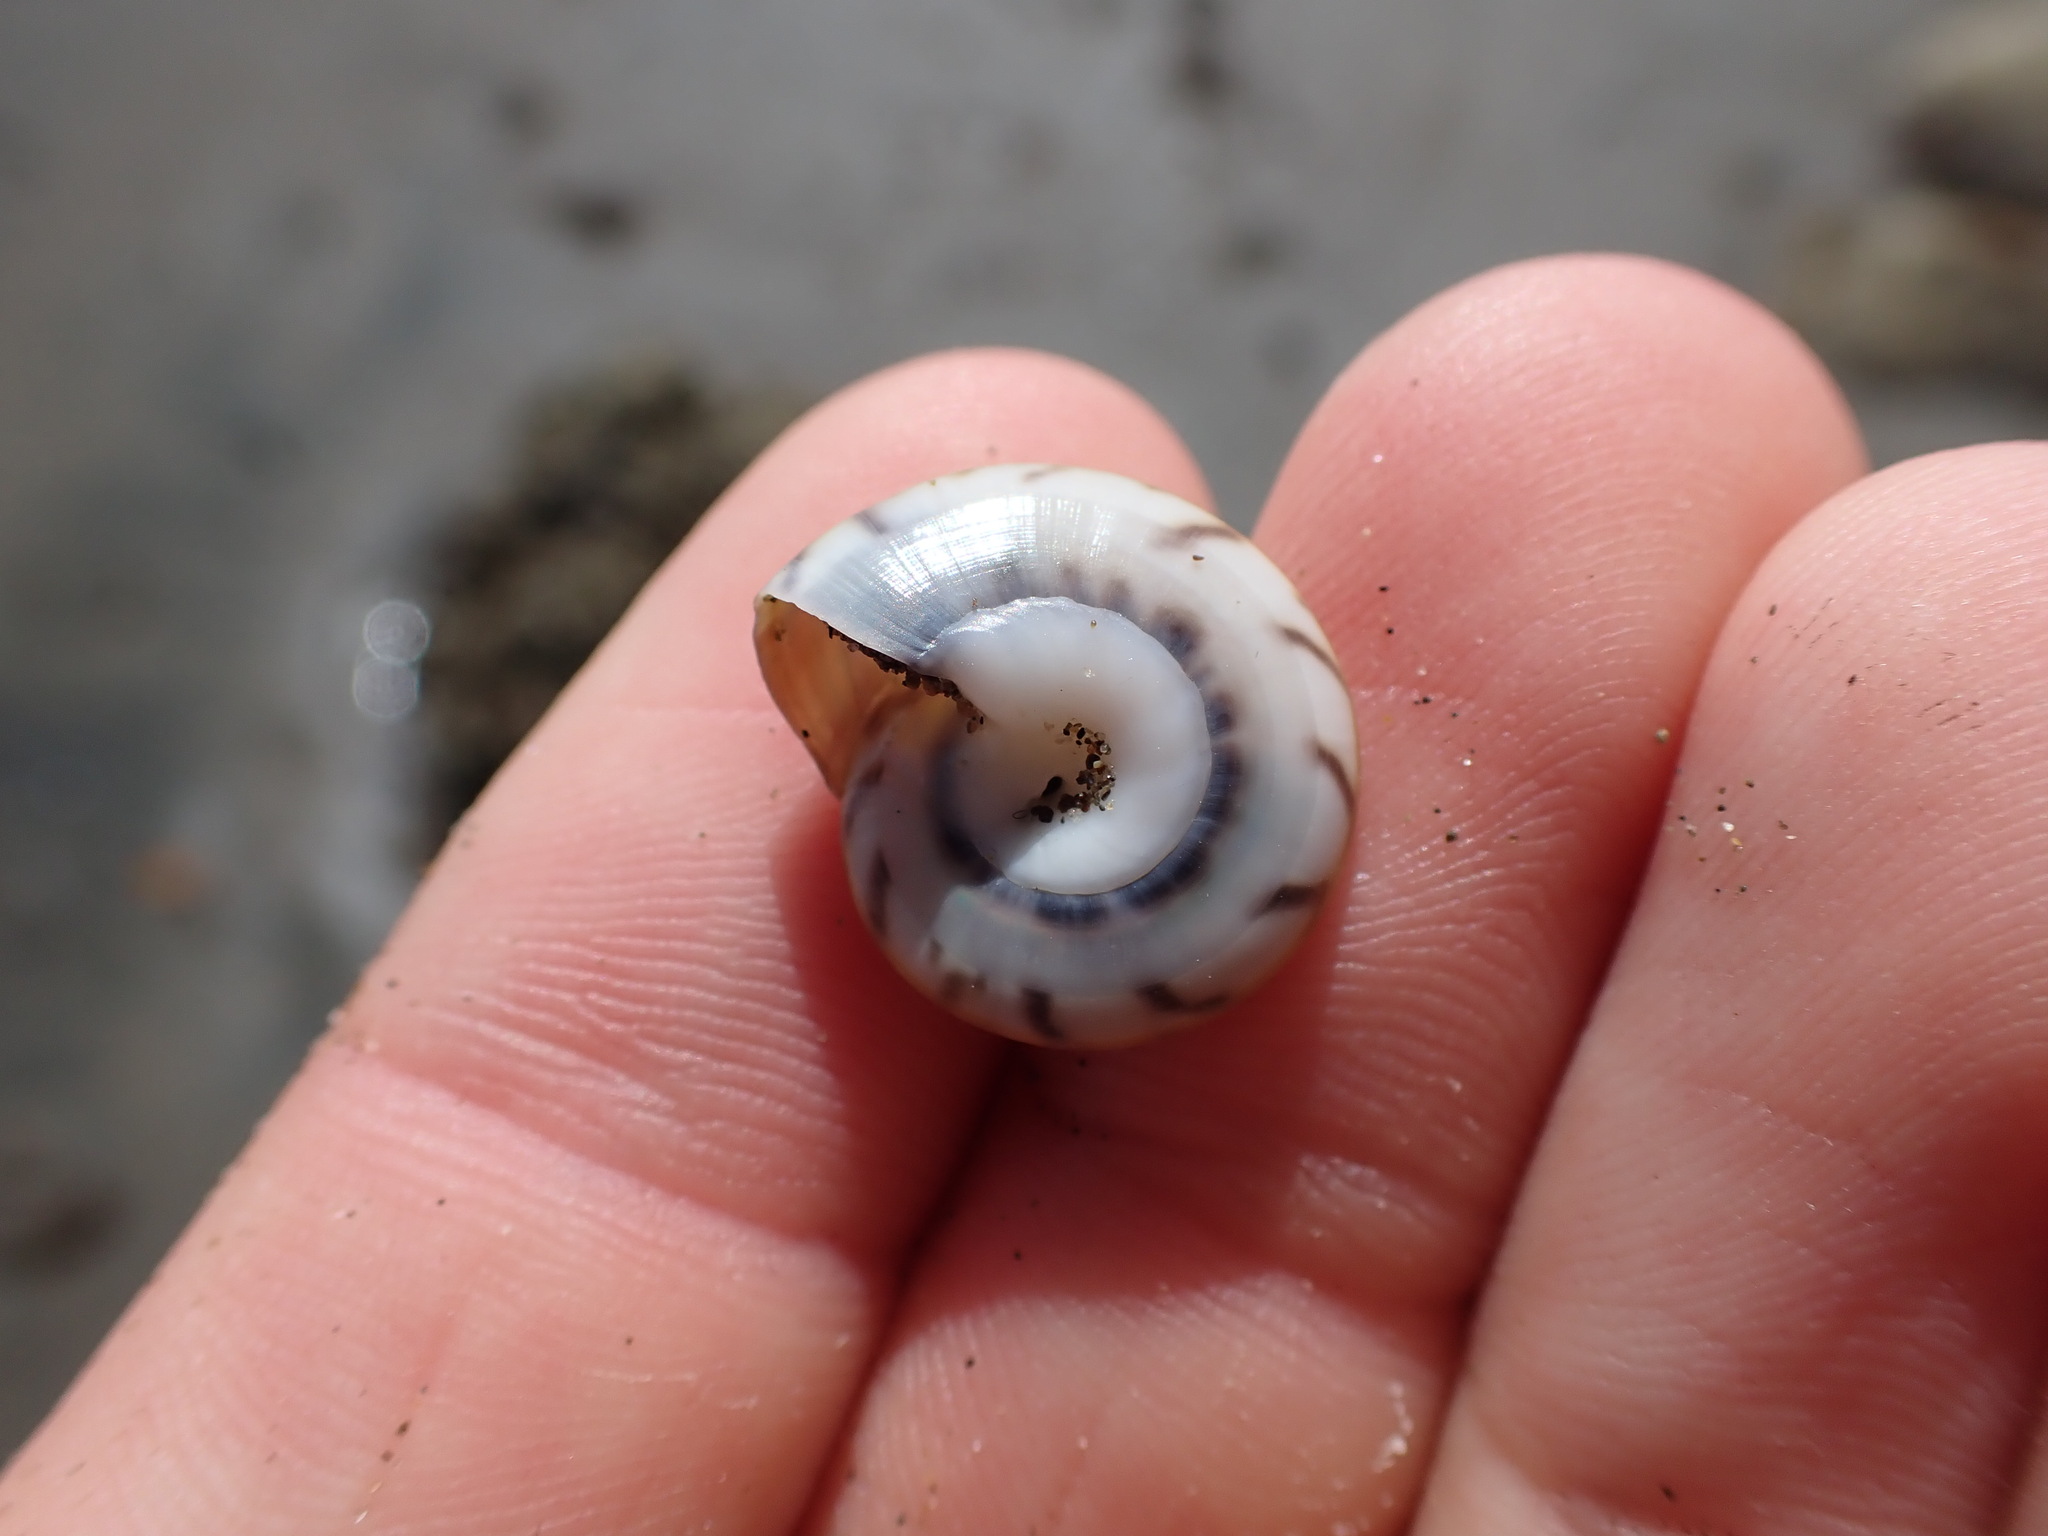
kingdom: Animalia
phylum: Mollusca
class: Gastropoda
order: Trochida
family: Trochidae
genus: Zethalia
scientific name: Zethalia zelandica
